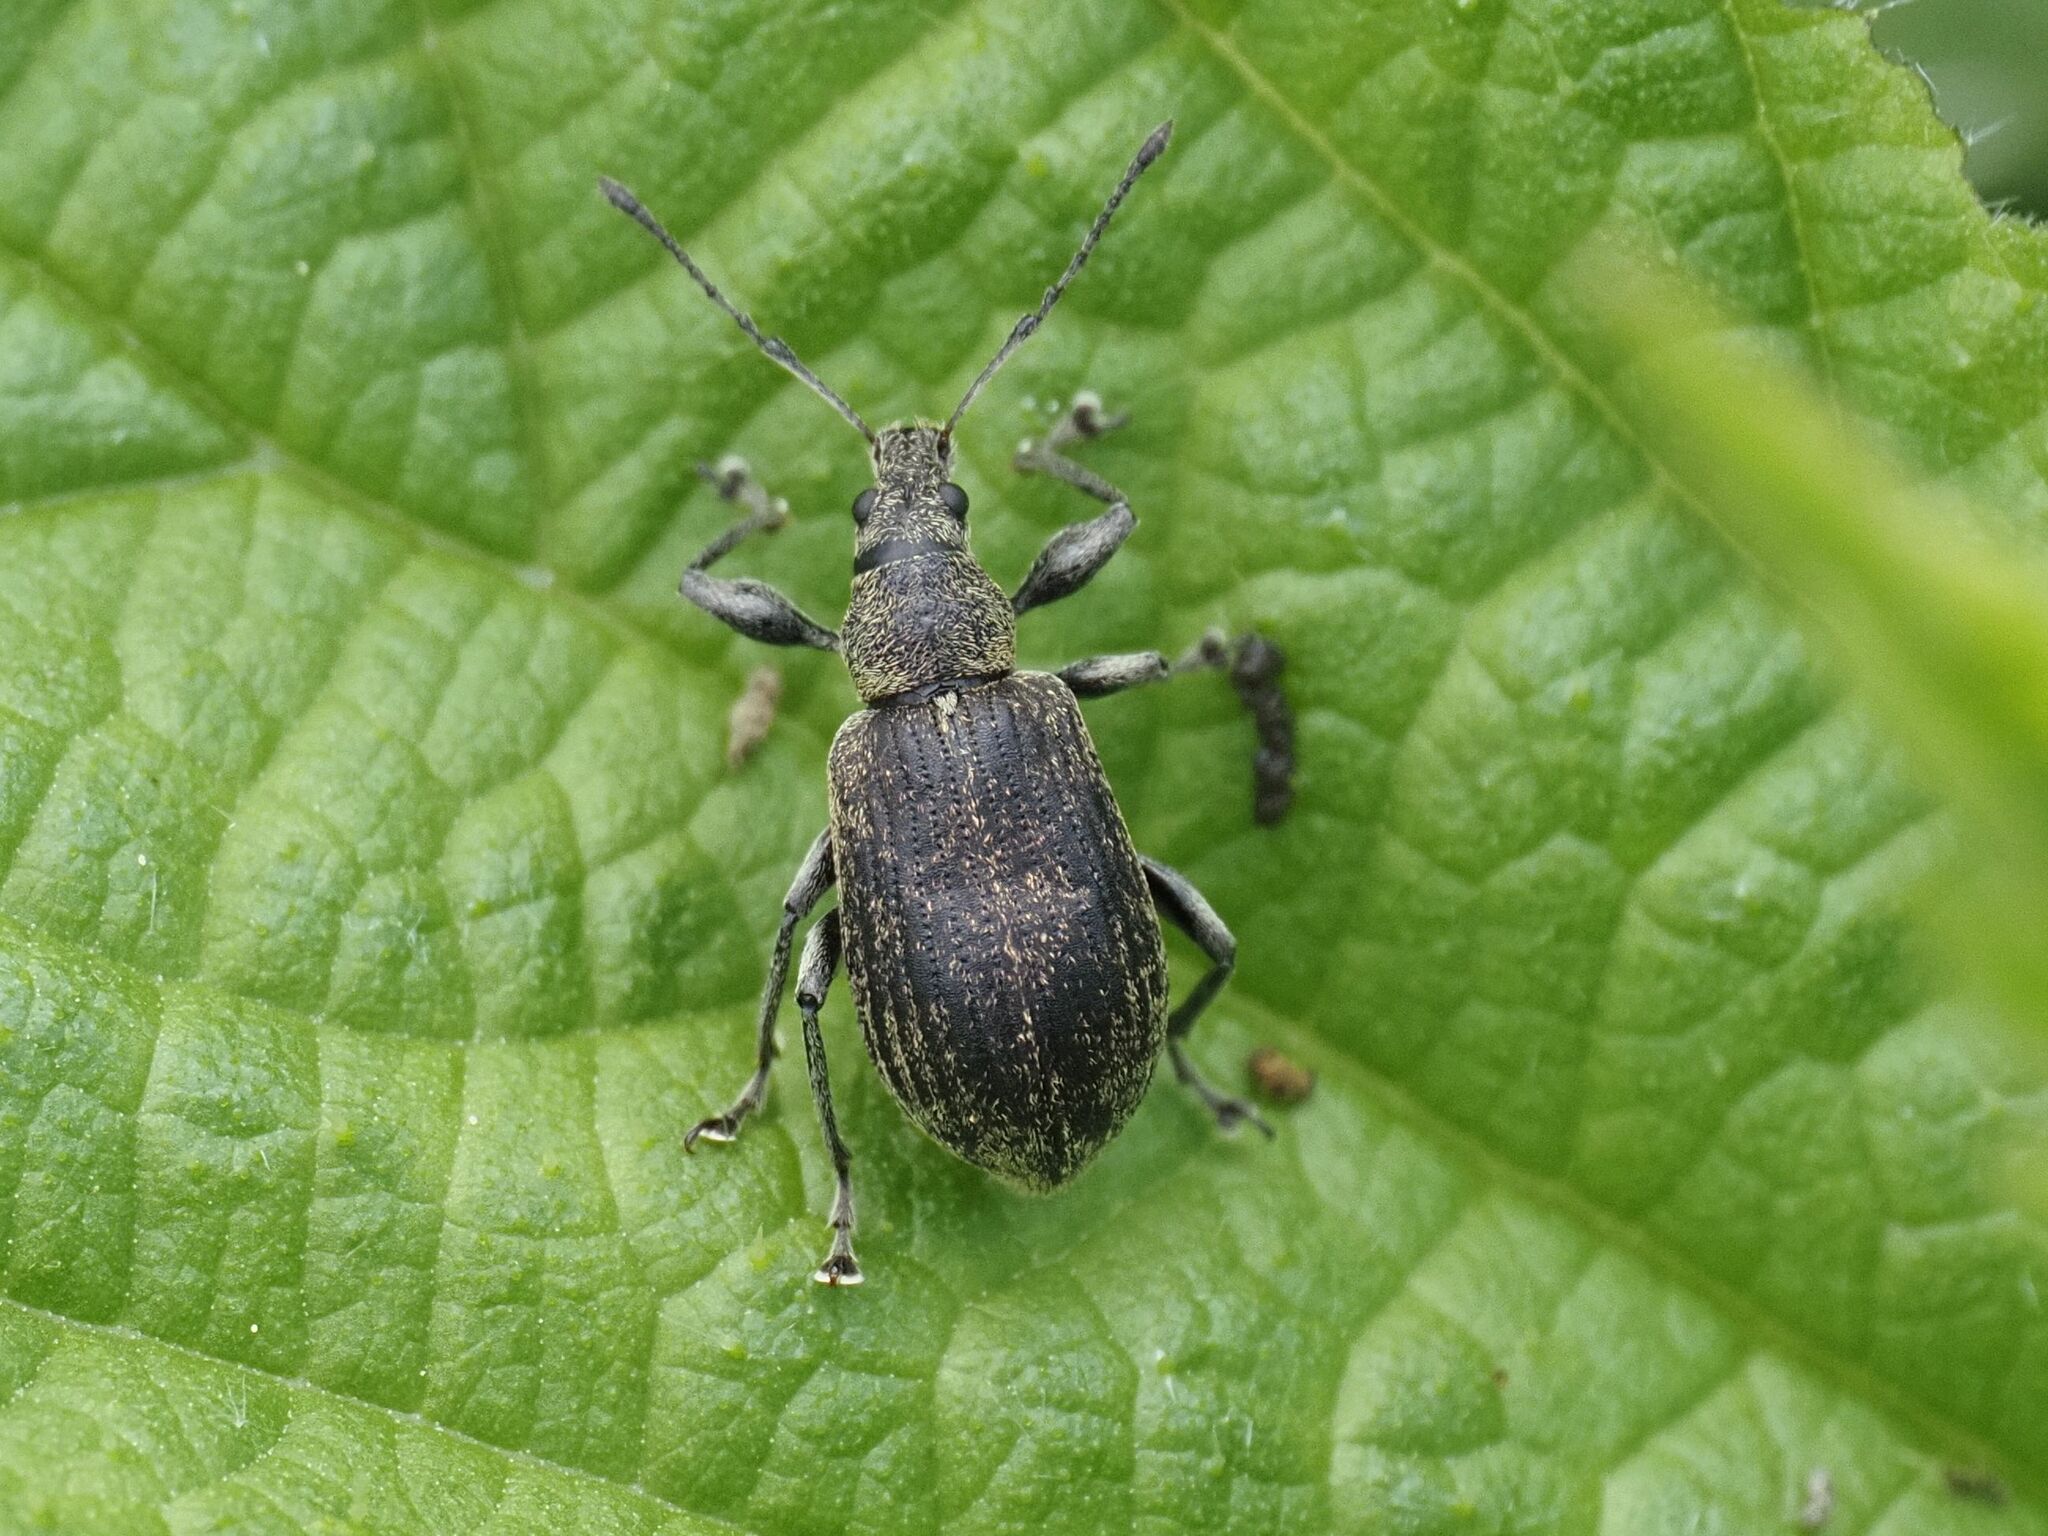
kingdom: Animalia
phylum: Arthropoda
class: Insecta
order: Coleoptera
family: Curculionidae
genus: Phyllobius
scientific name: Phyllobius pomaceus
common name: Green nettle weevil
